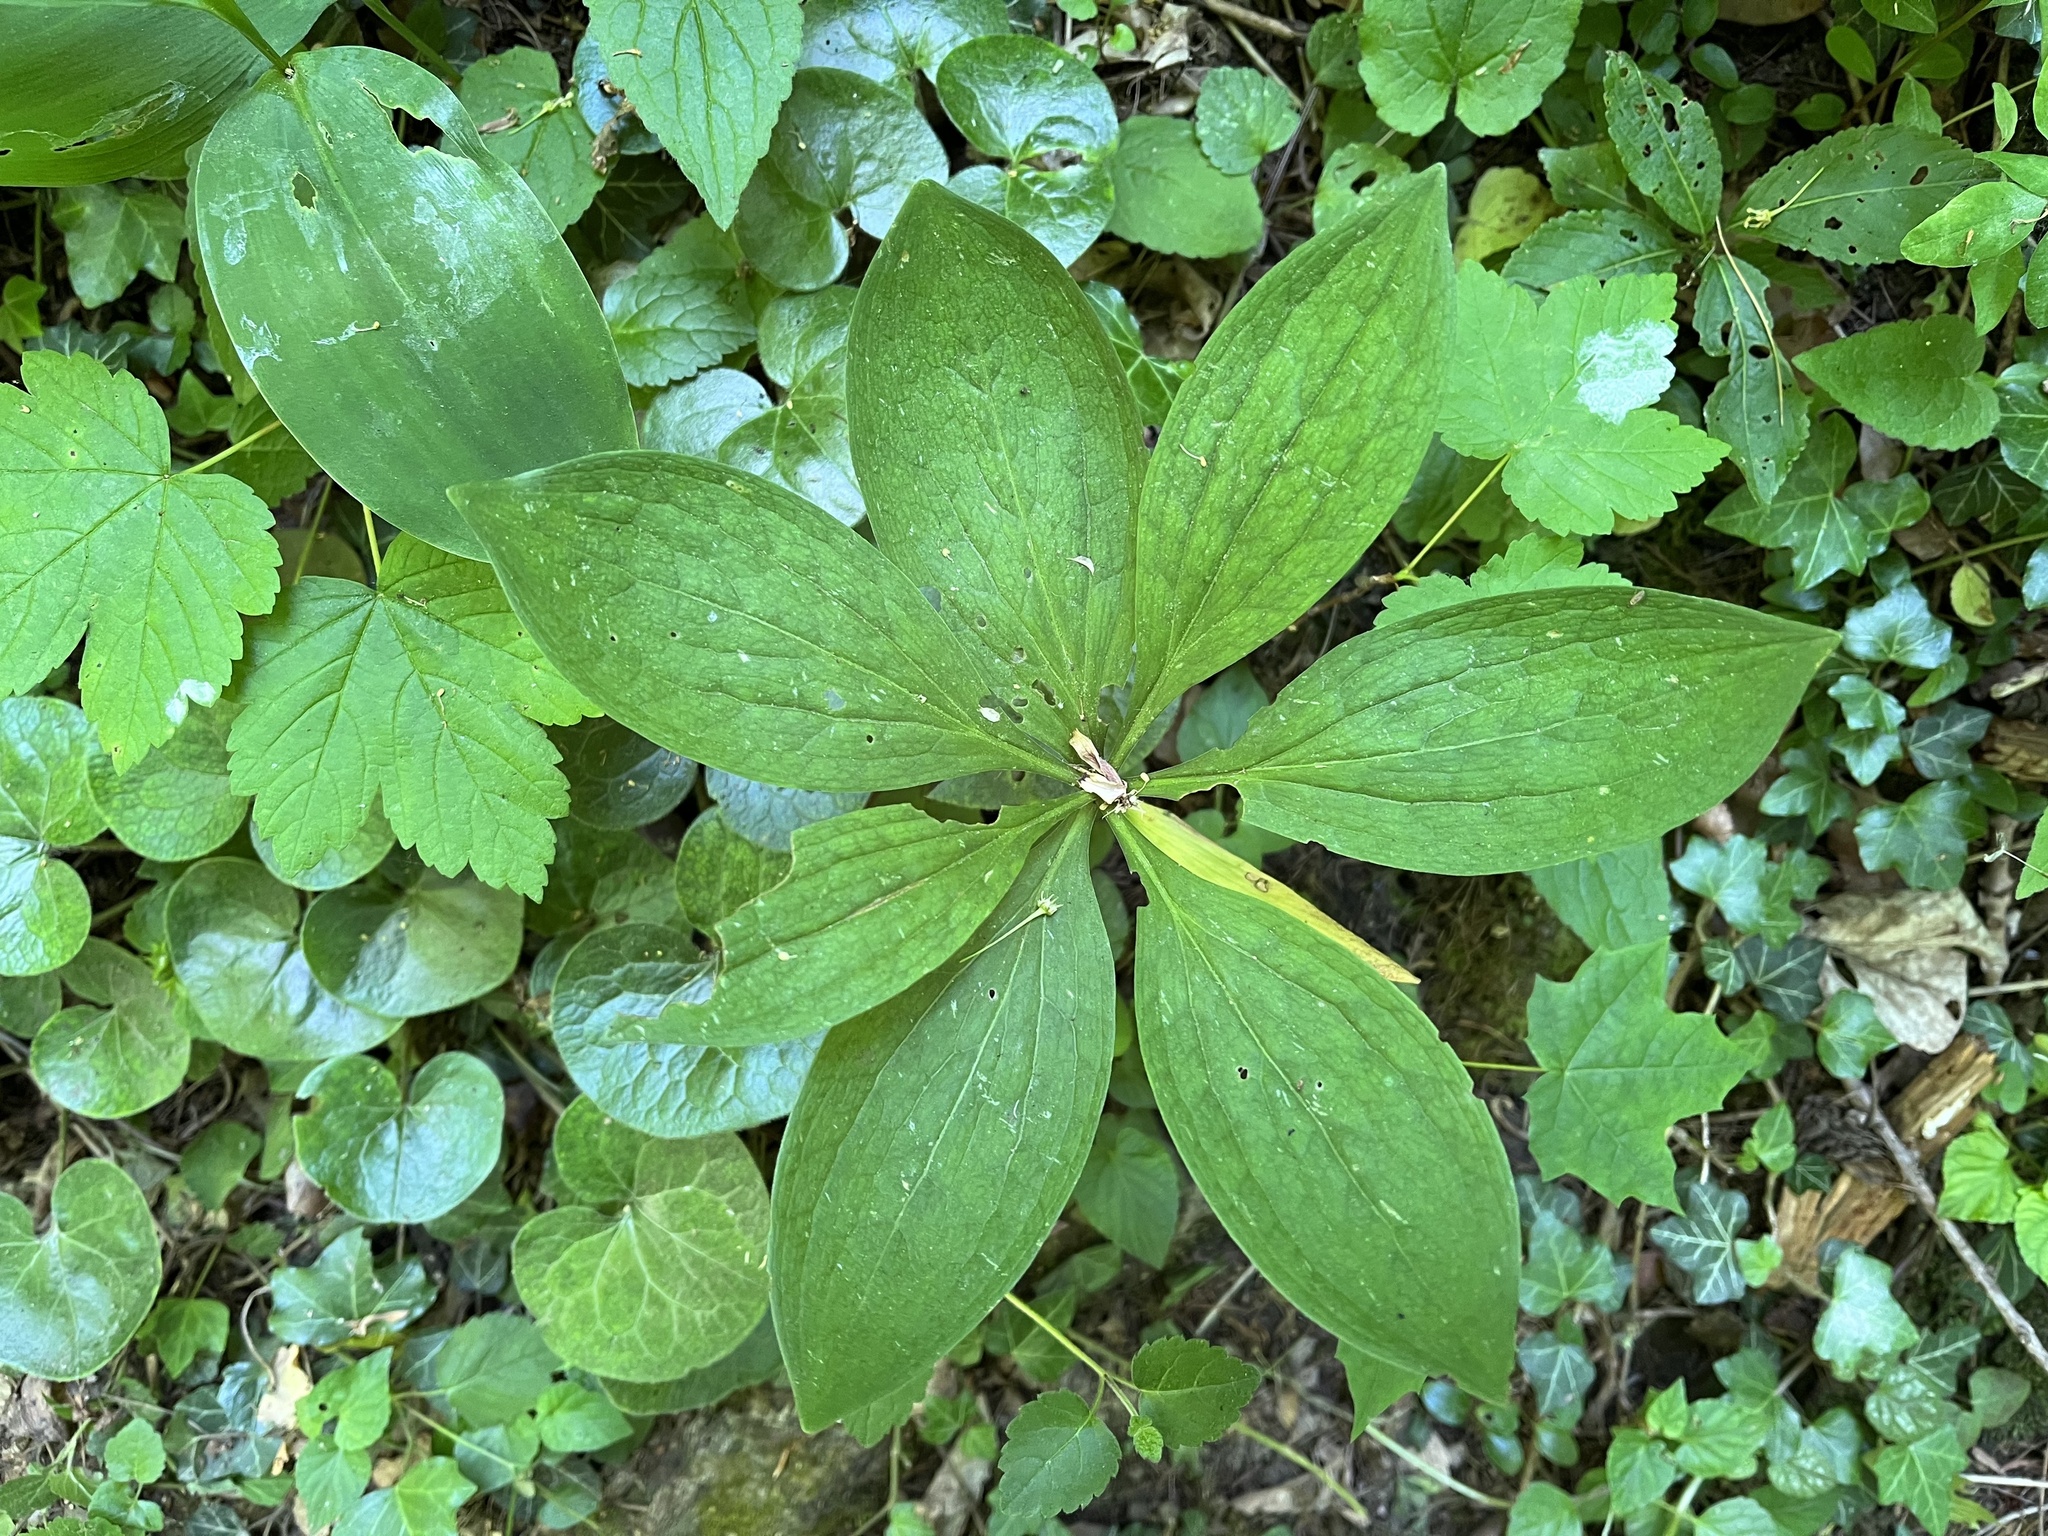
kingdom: Plantae
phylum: Tracheophyta
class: Liliopsida
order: Liliales
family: Liliaceae
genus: Lilium
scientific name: Lilium martagon
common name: Martagon lily
